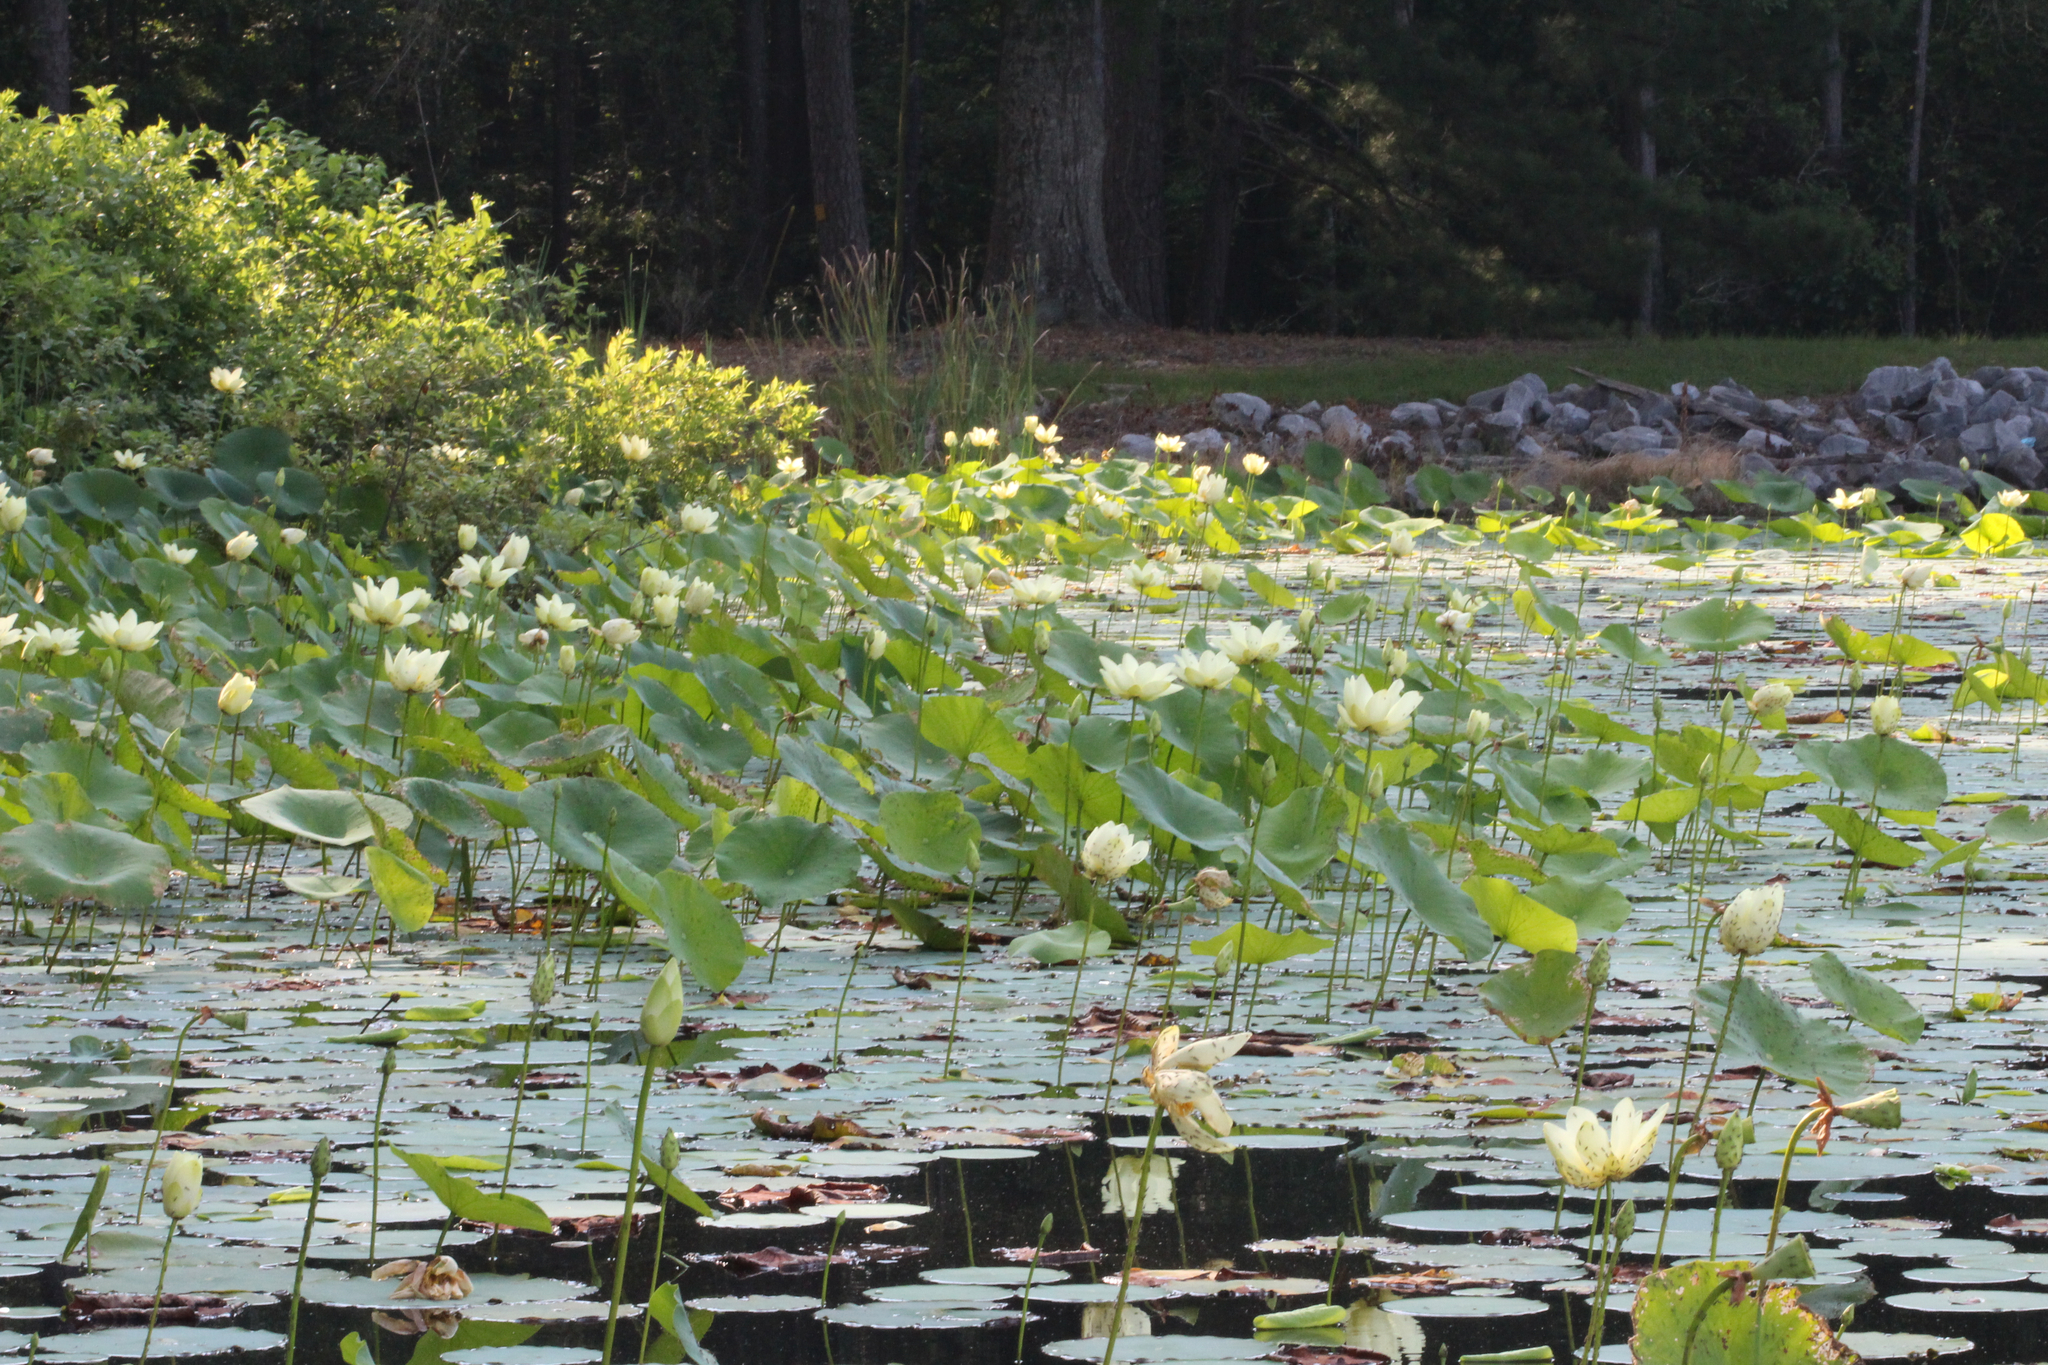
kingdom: Plantae
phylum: Tracheophyta
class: Magnoliopsida
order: Proteales
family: Nelumbonaceae
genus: Nelumbo
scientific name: Nelumbo lutea
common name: American lotus
